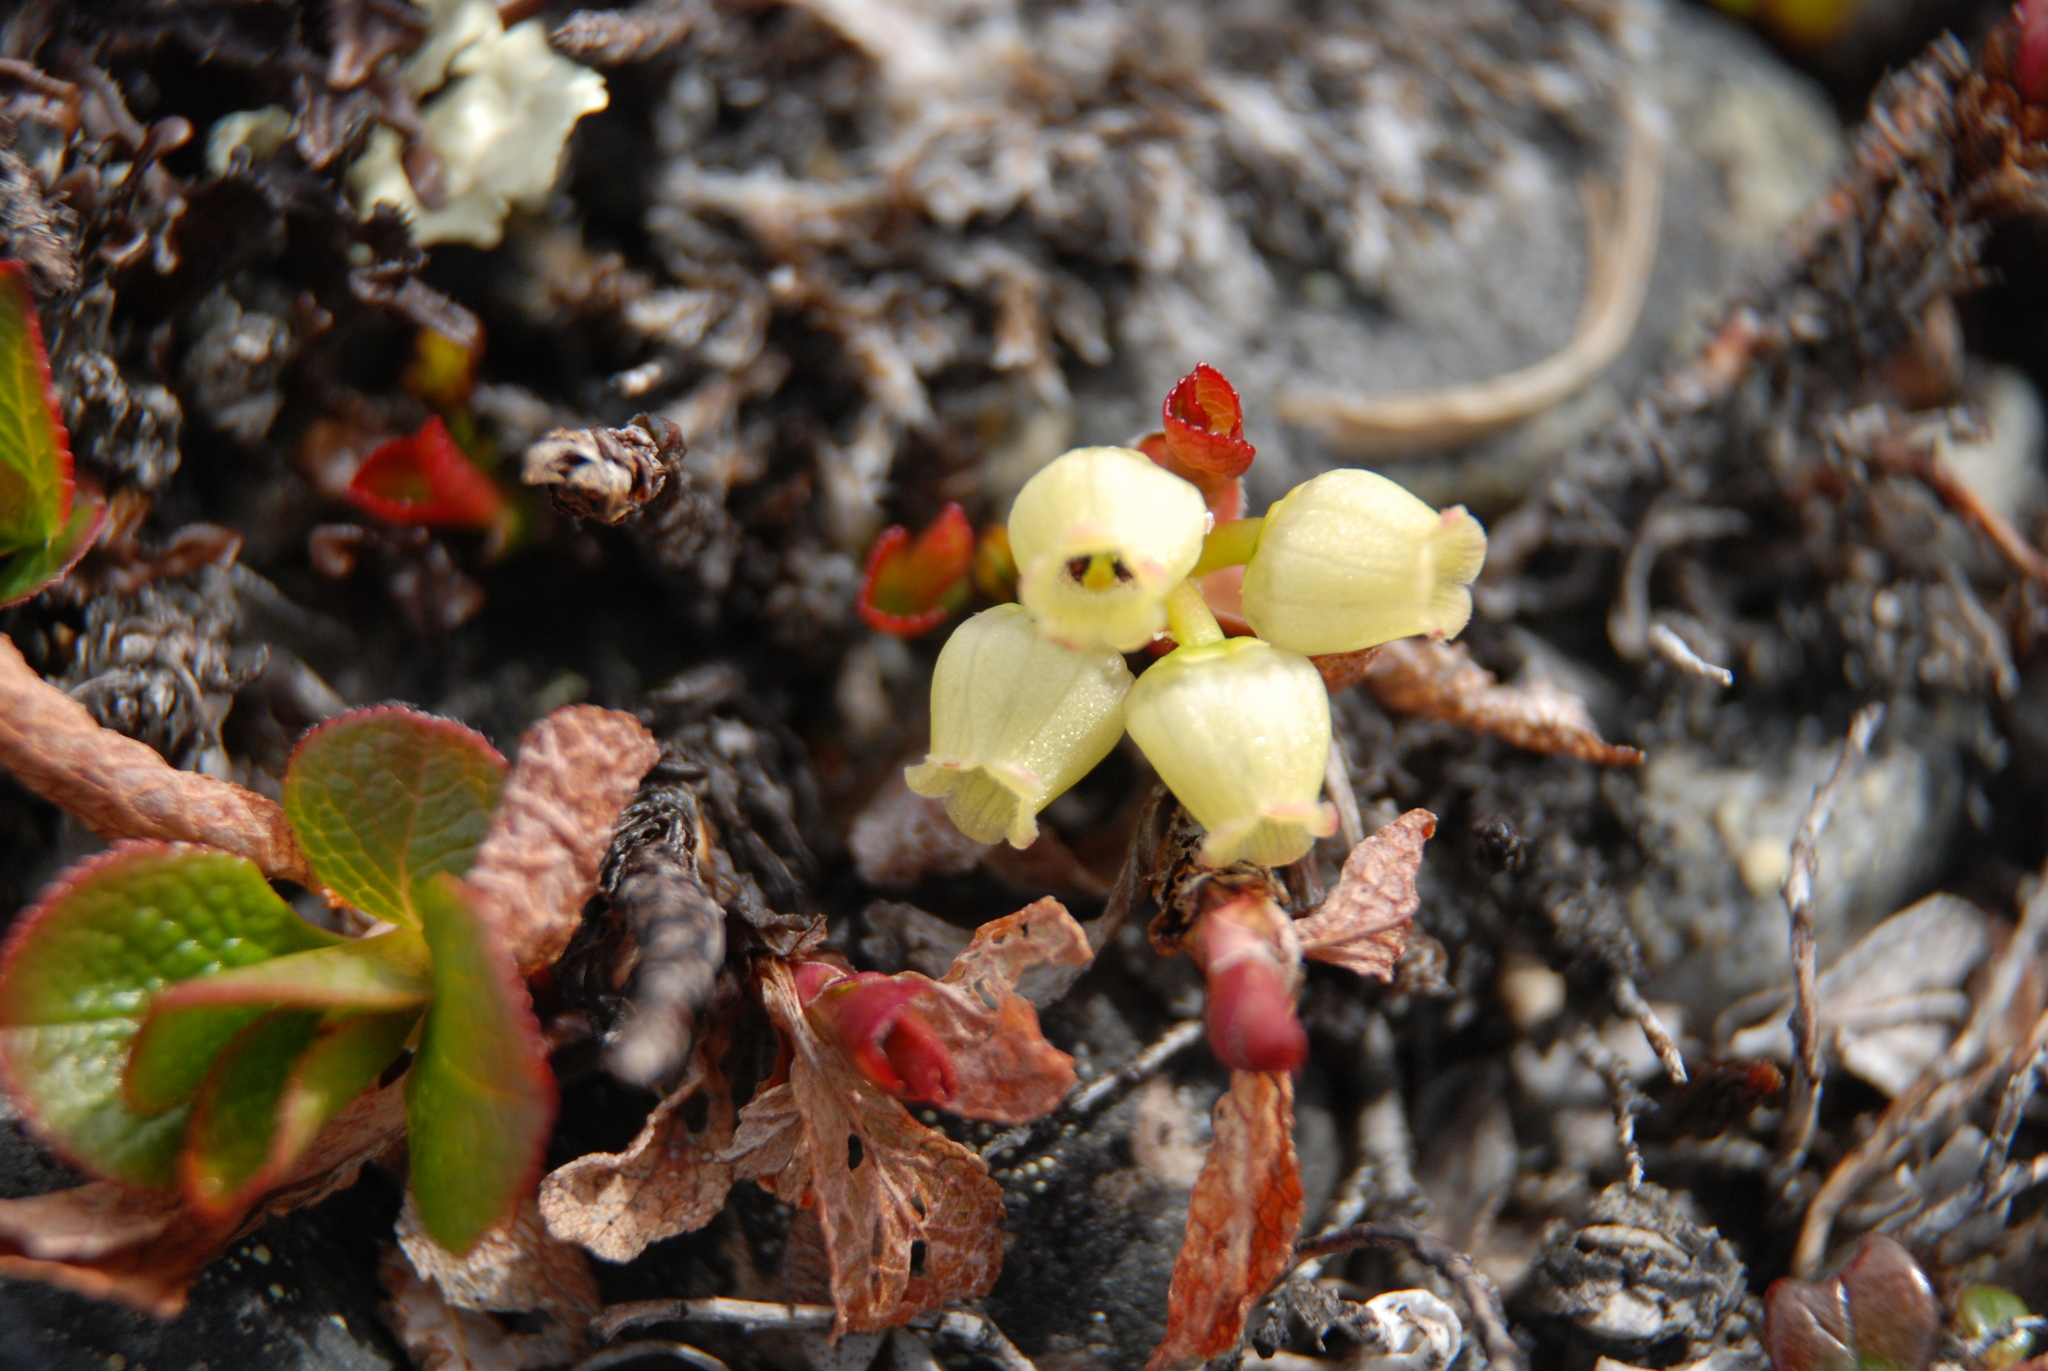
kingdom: Plantae
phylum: Tracheophyta
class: Magnoliopsida
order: Ericales
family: Ericaceae
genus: Arctostaphylos
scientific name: Arctostaphylos alpinus
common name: Alpine bearberry
